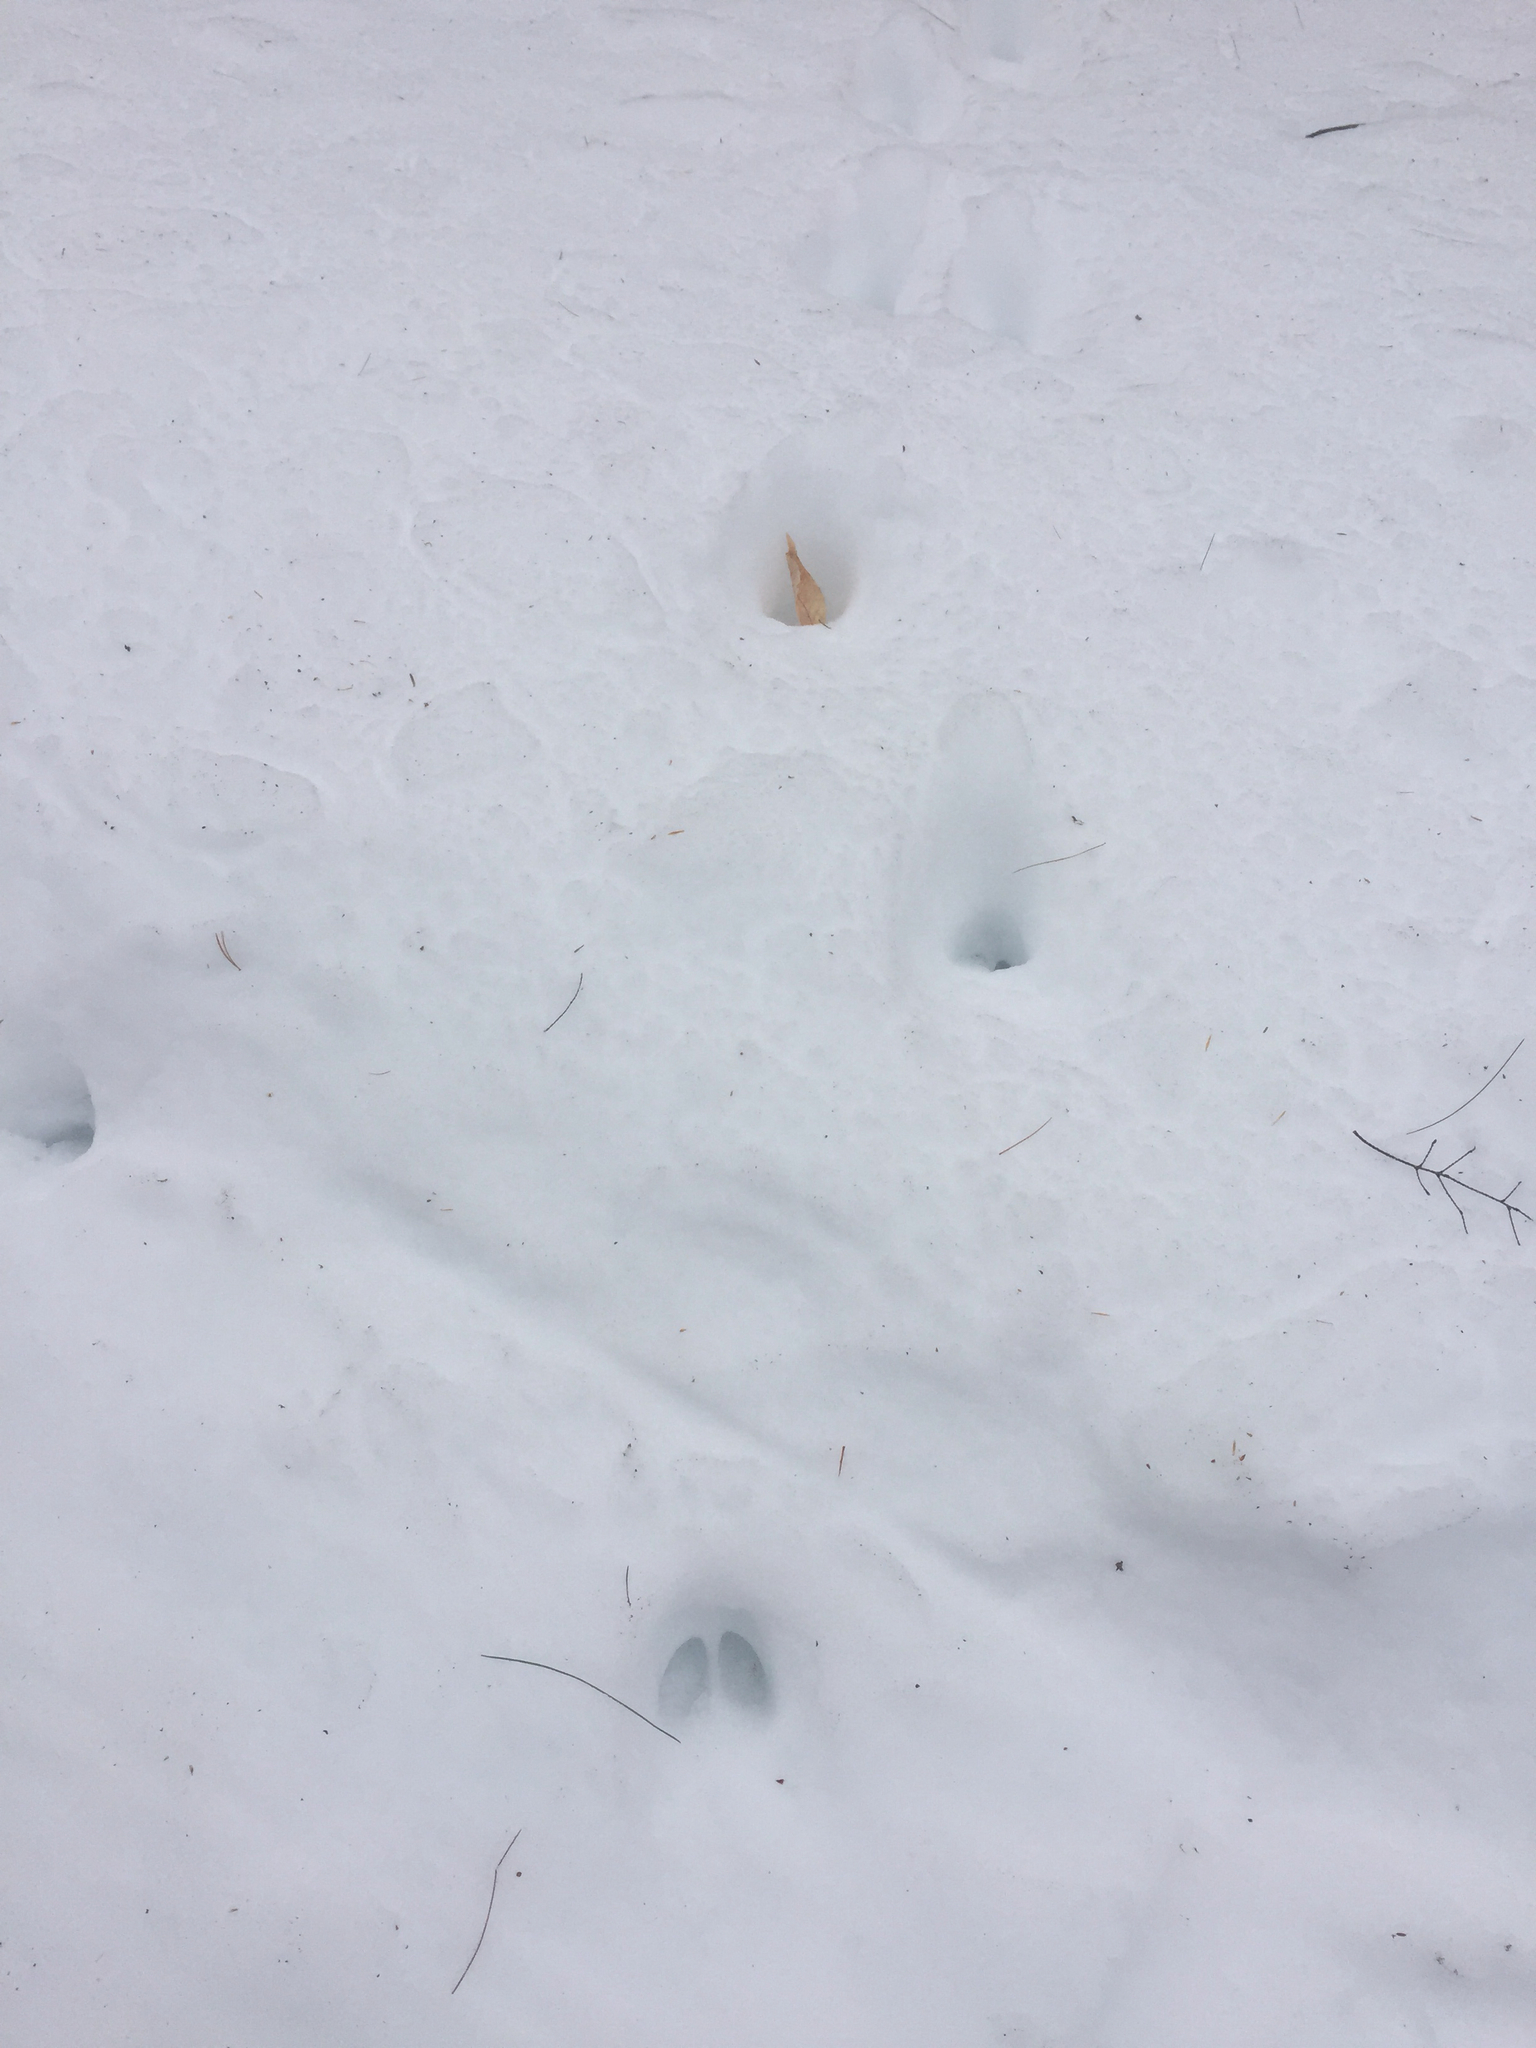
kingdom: Animalia
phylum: Chordata
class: Mammalia
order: Artiodactyla
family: Cervidae
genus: Odocoileus
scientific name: Odocoileus virginianus
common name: White-tailed deer
